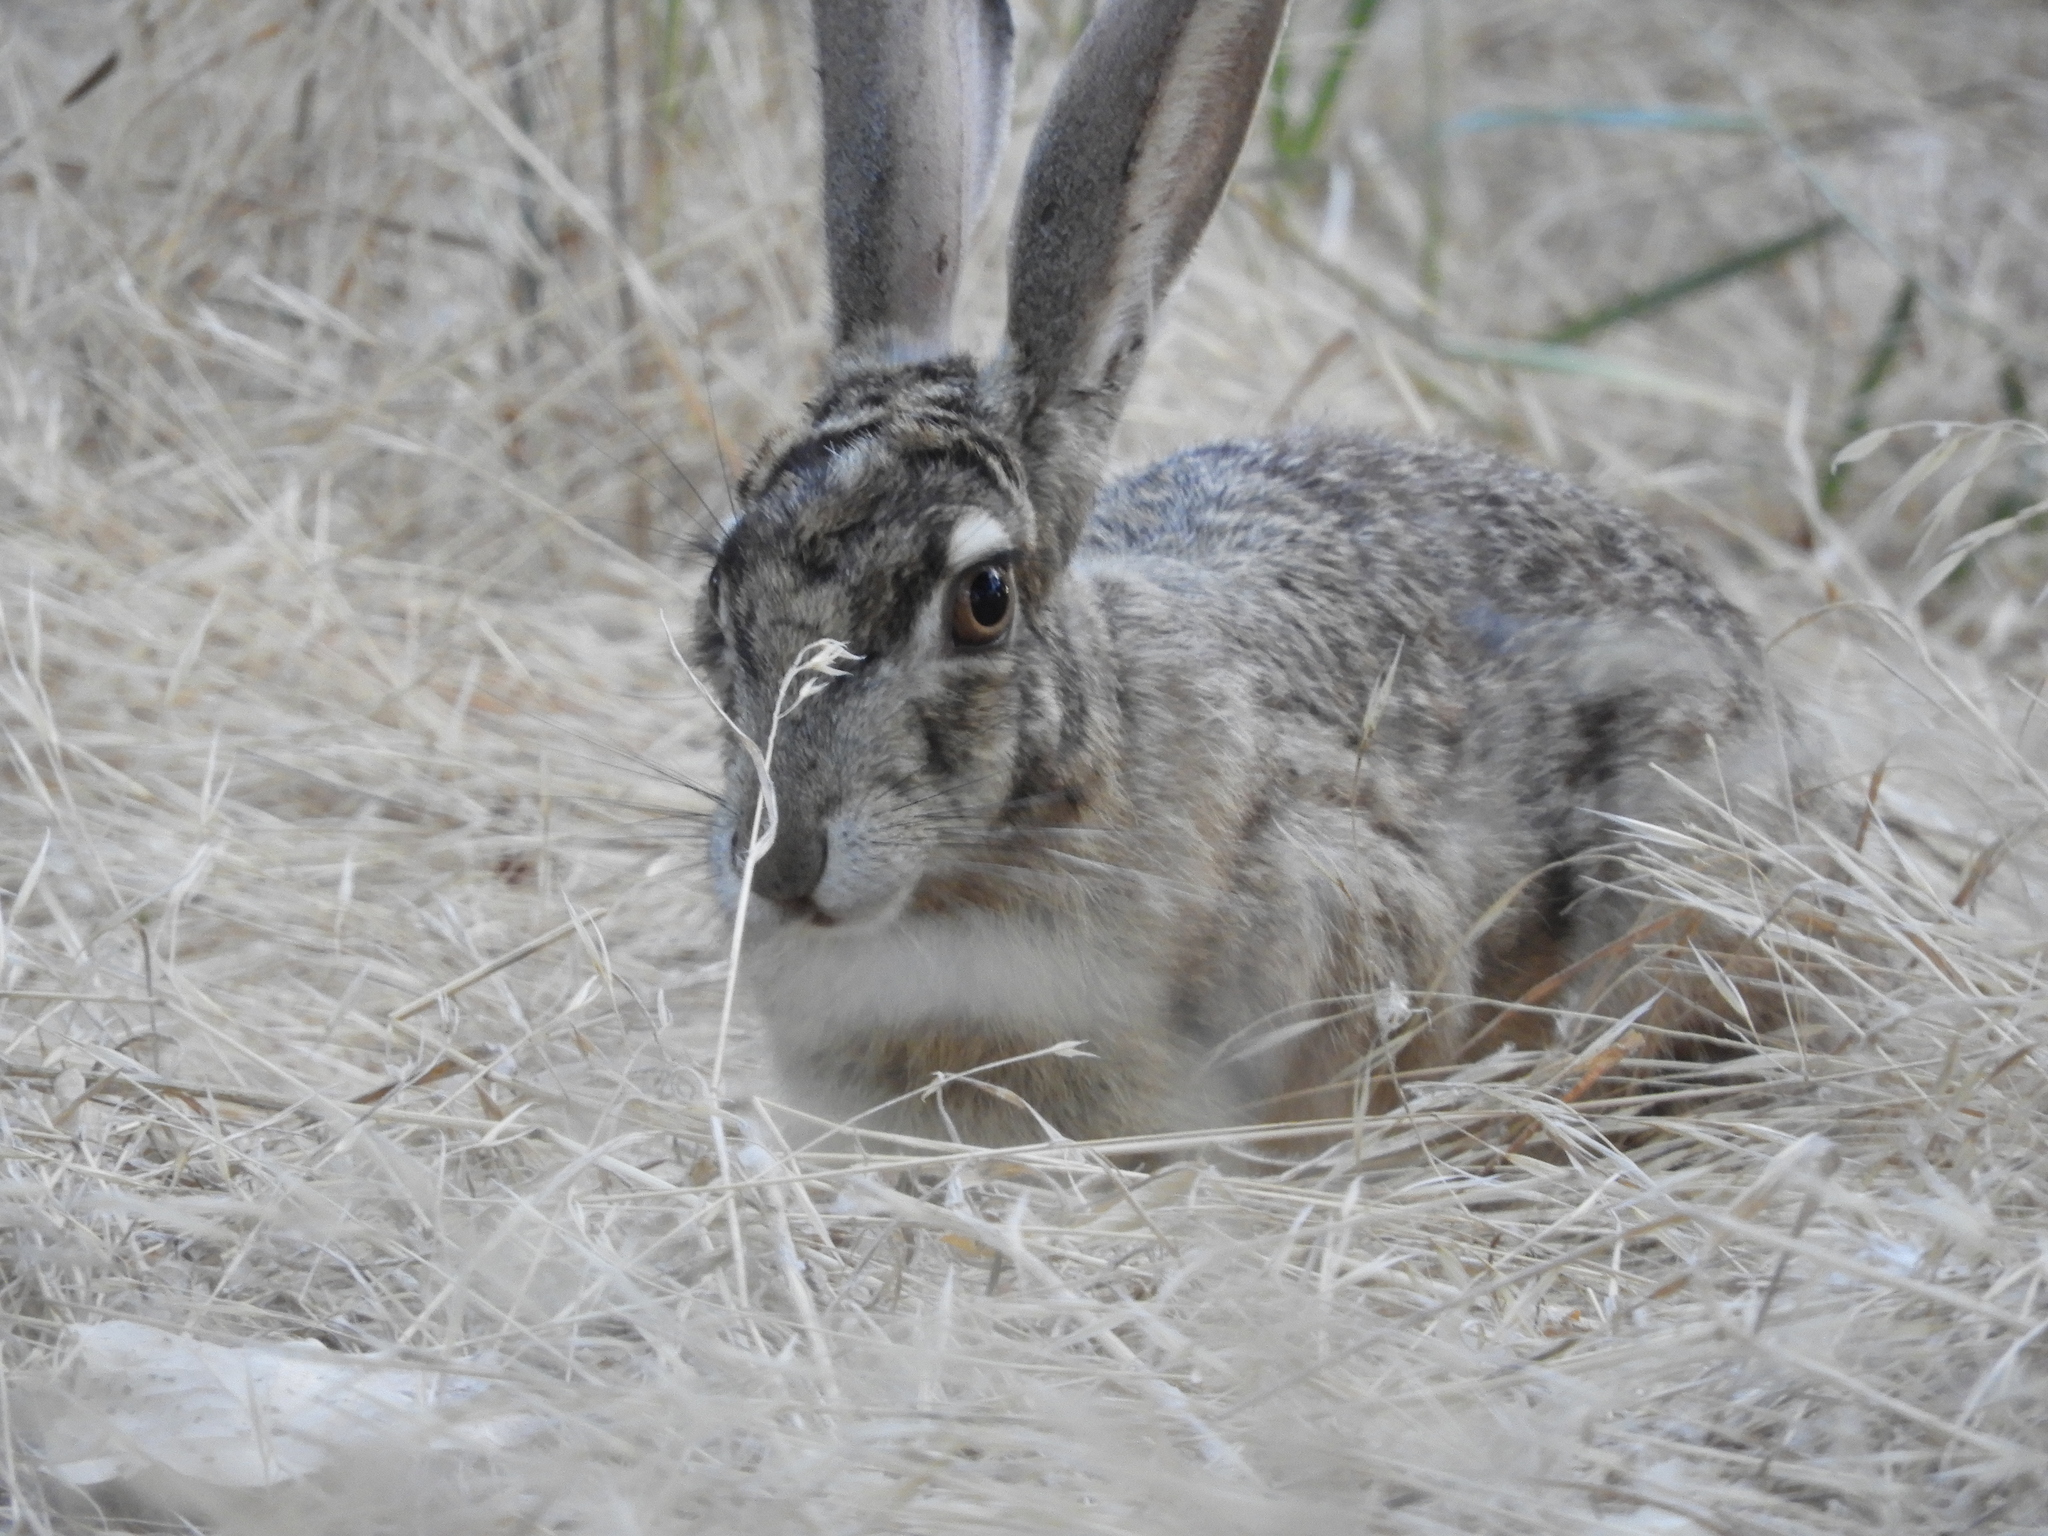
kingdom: Animalia
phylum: Chordata
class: Mammalia
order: Lagomorpha
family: Leporidae
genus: Lepus
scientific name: Lepus californicus
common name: Black-tailed jackrabbit
